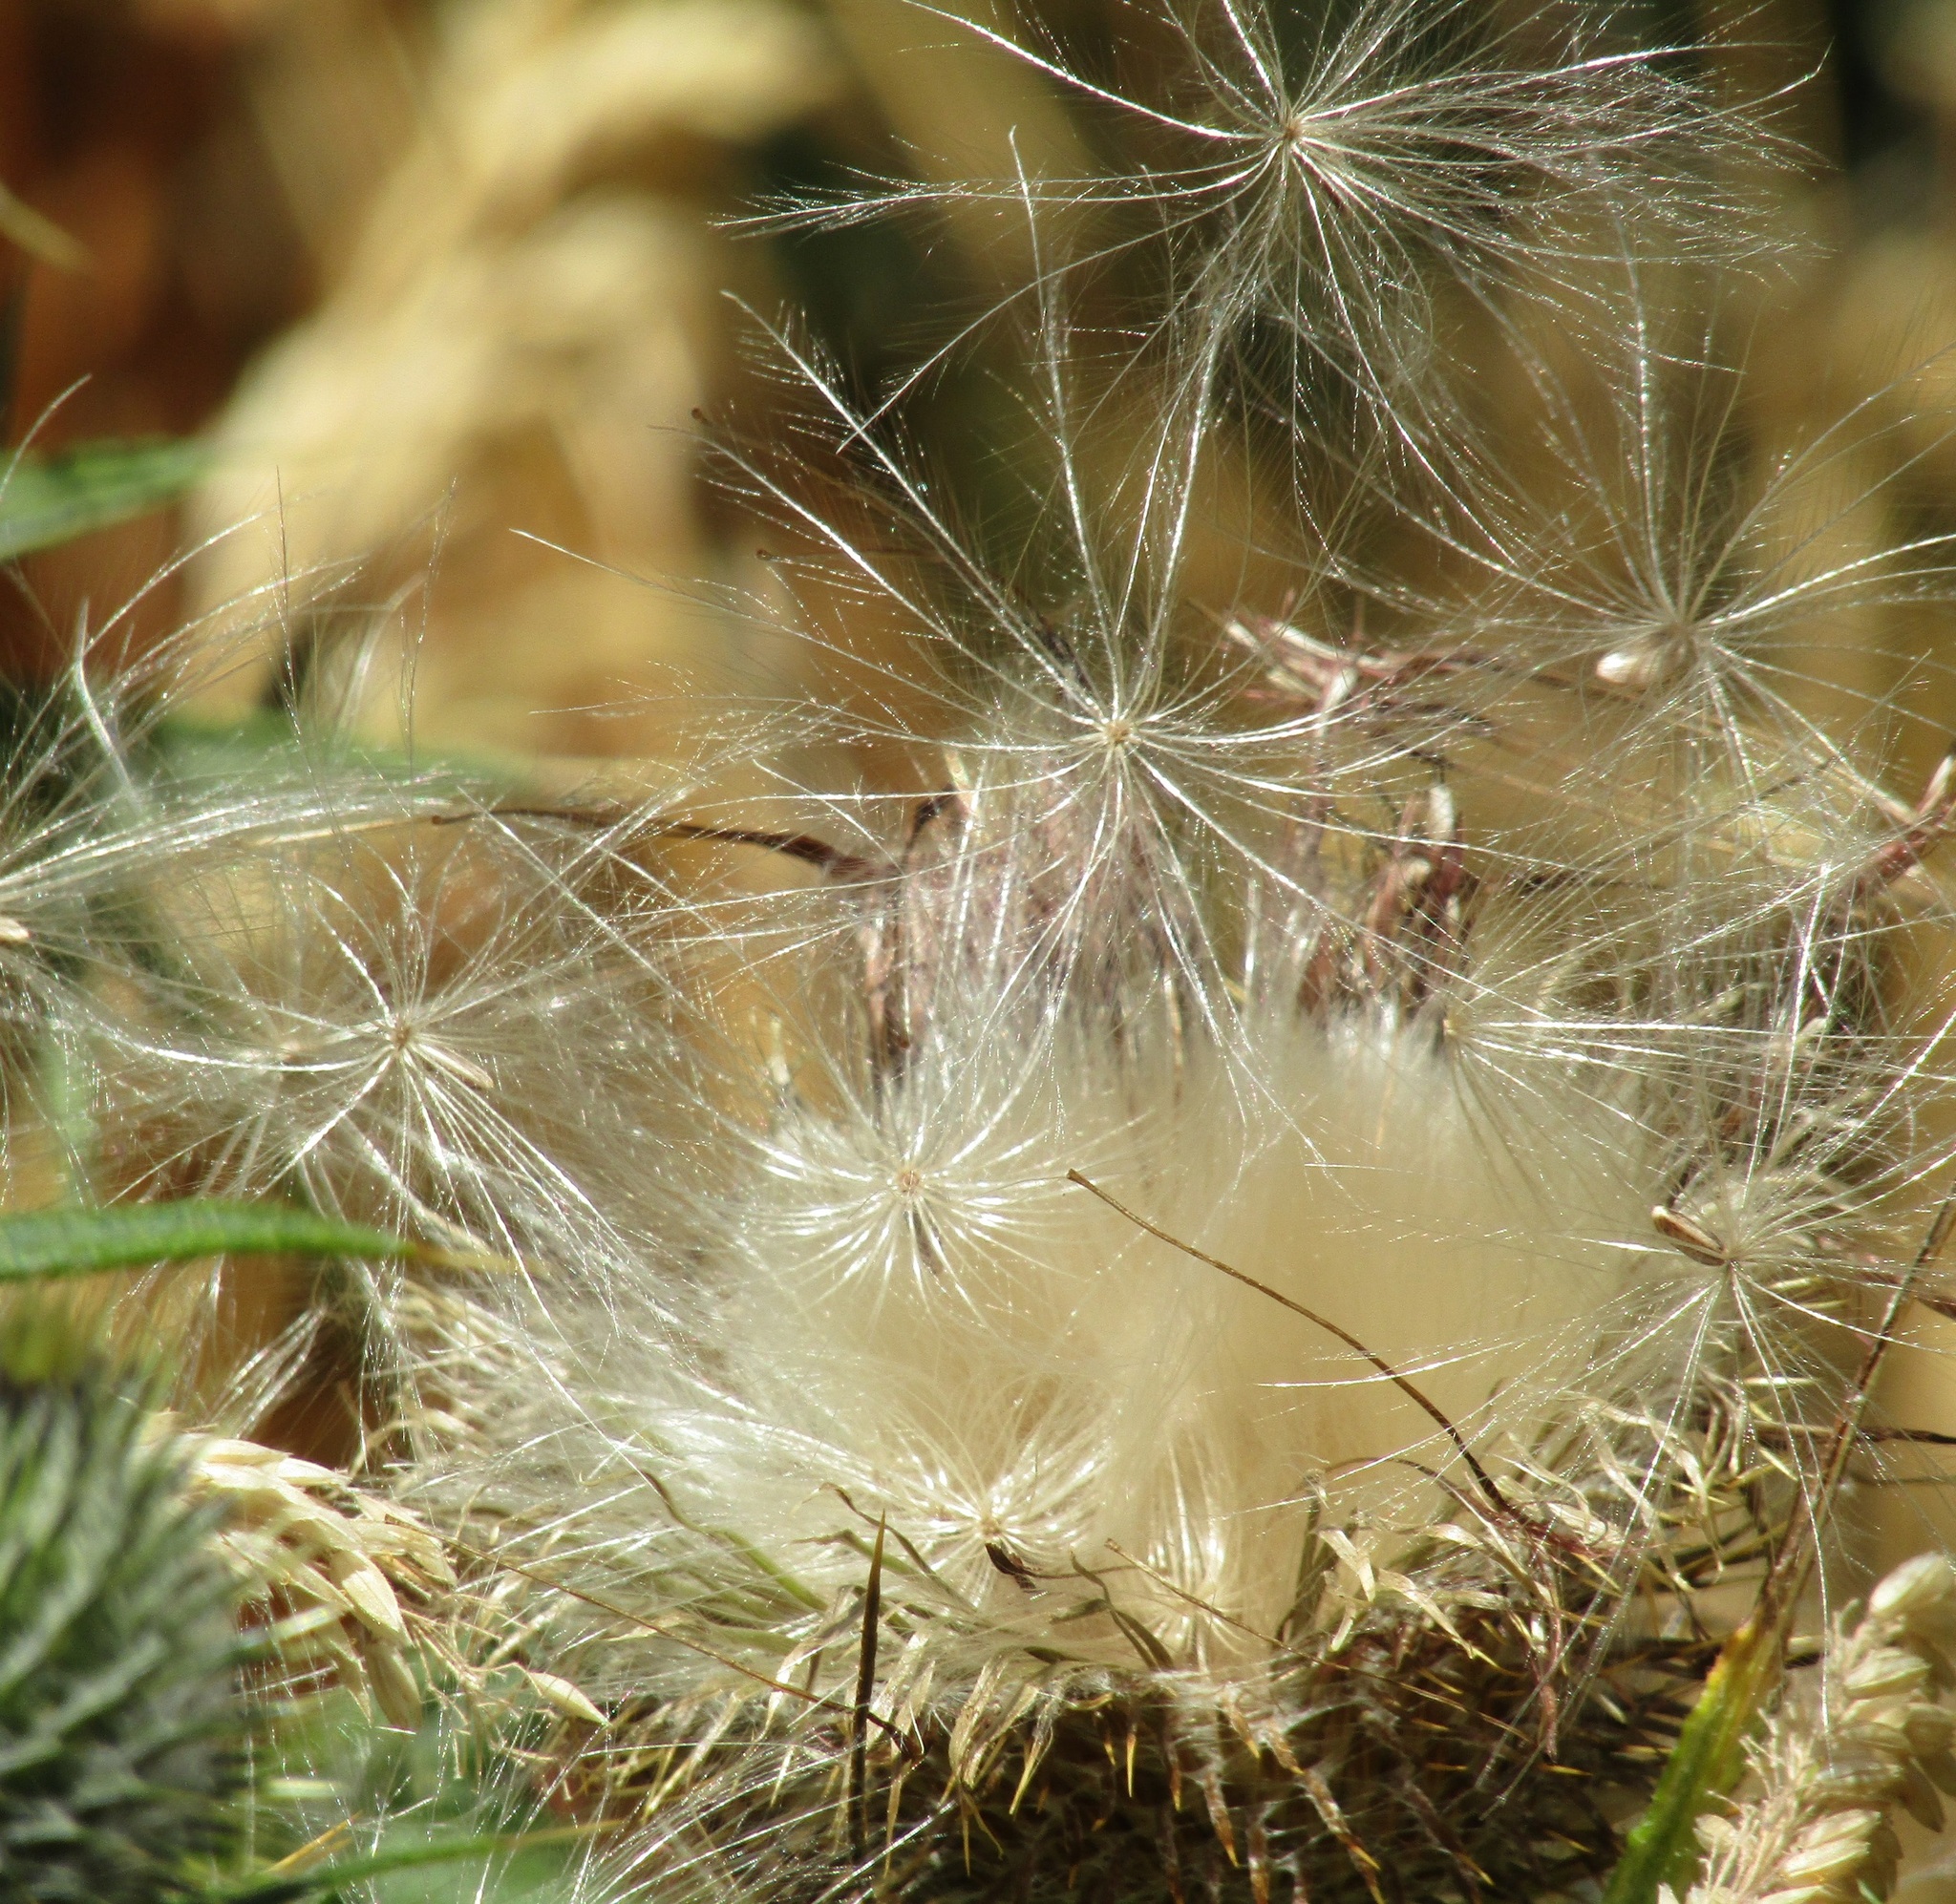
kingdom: Plantae
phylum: Tracheophyta
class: Magnoliopsida
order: Asterales
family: Asteraceae
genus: Cirsium
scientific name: Cirsium vulgare
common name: Bull thistle
